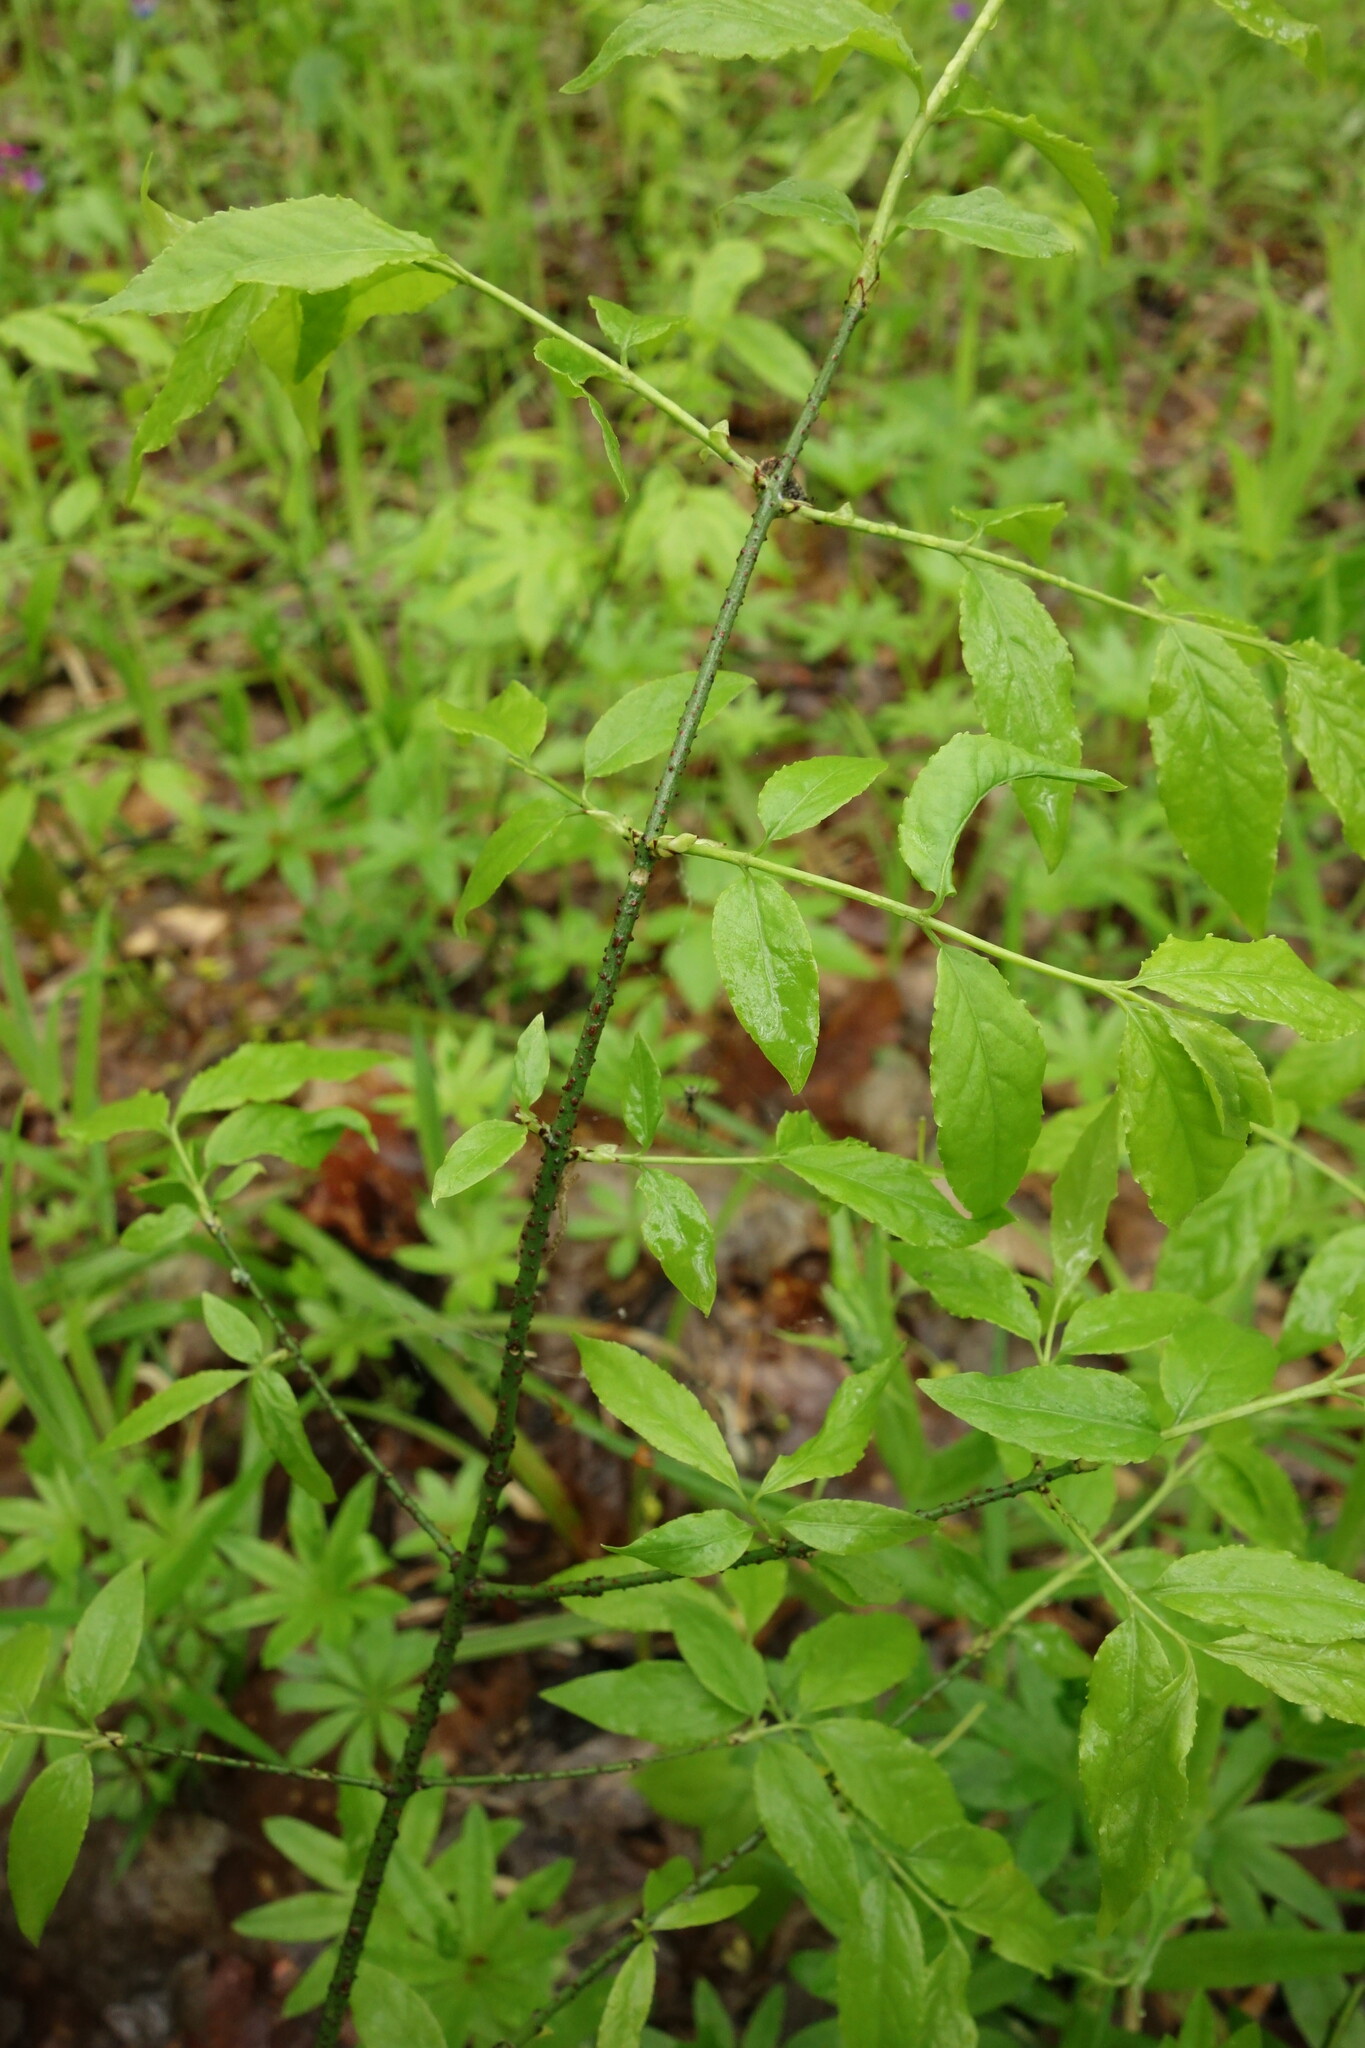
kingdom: Plantae
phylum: Tracheophyta
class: Magnoliopsida
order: Celastrales
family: Celastraceae
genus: Euonymus
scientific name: Euonymus verrucosus
